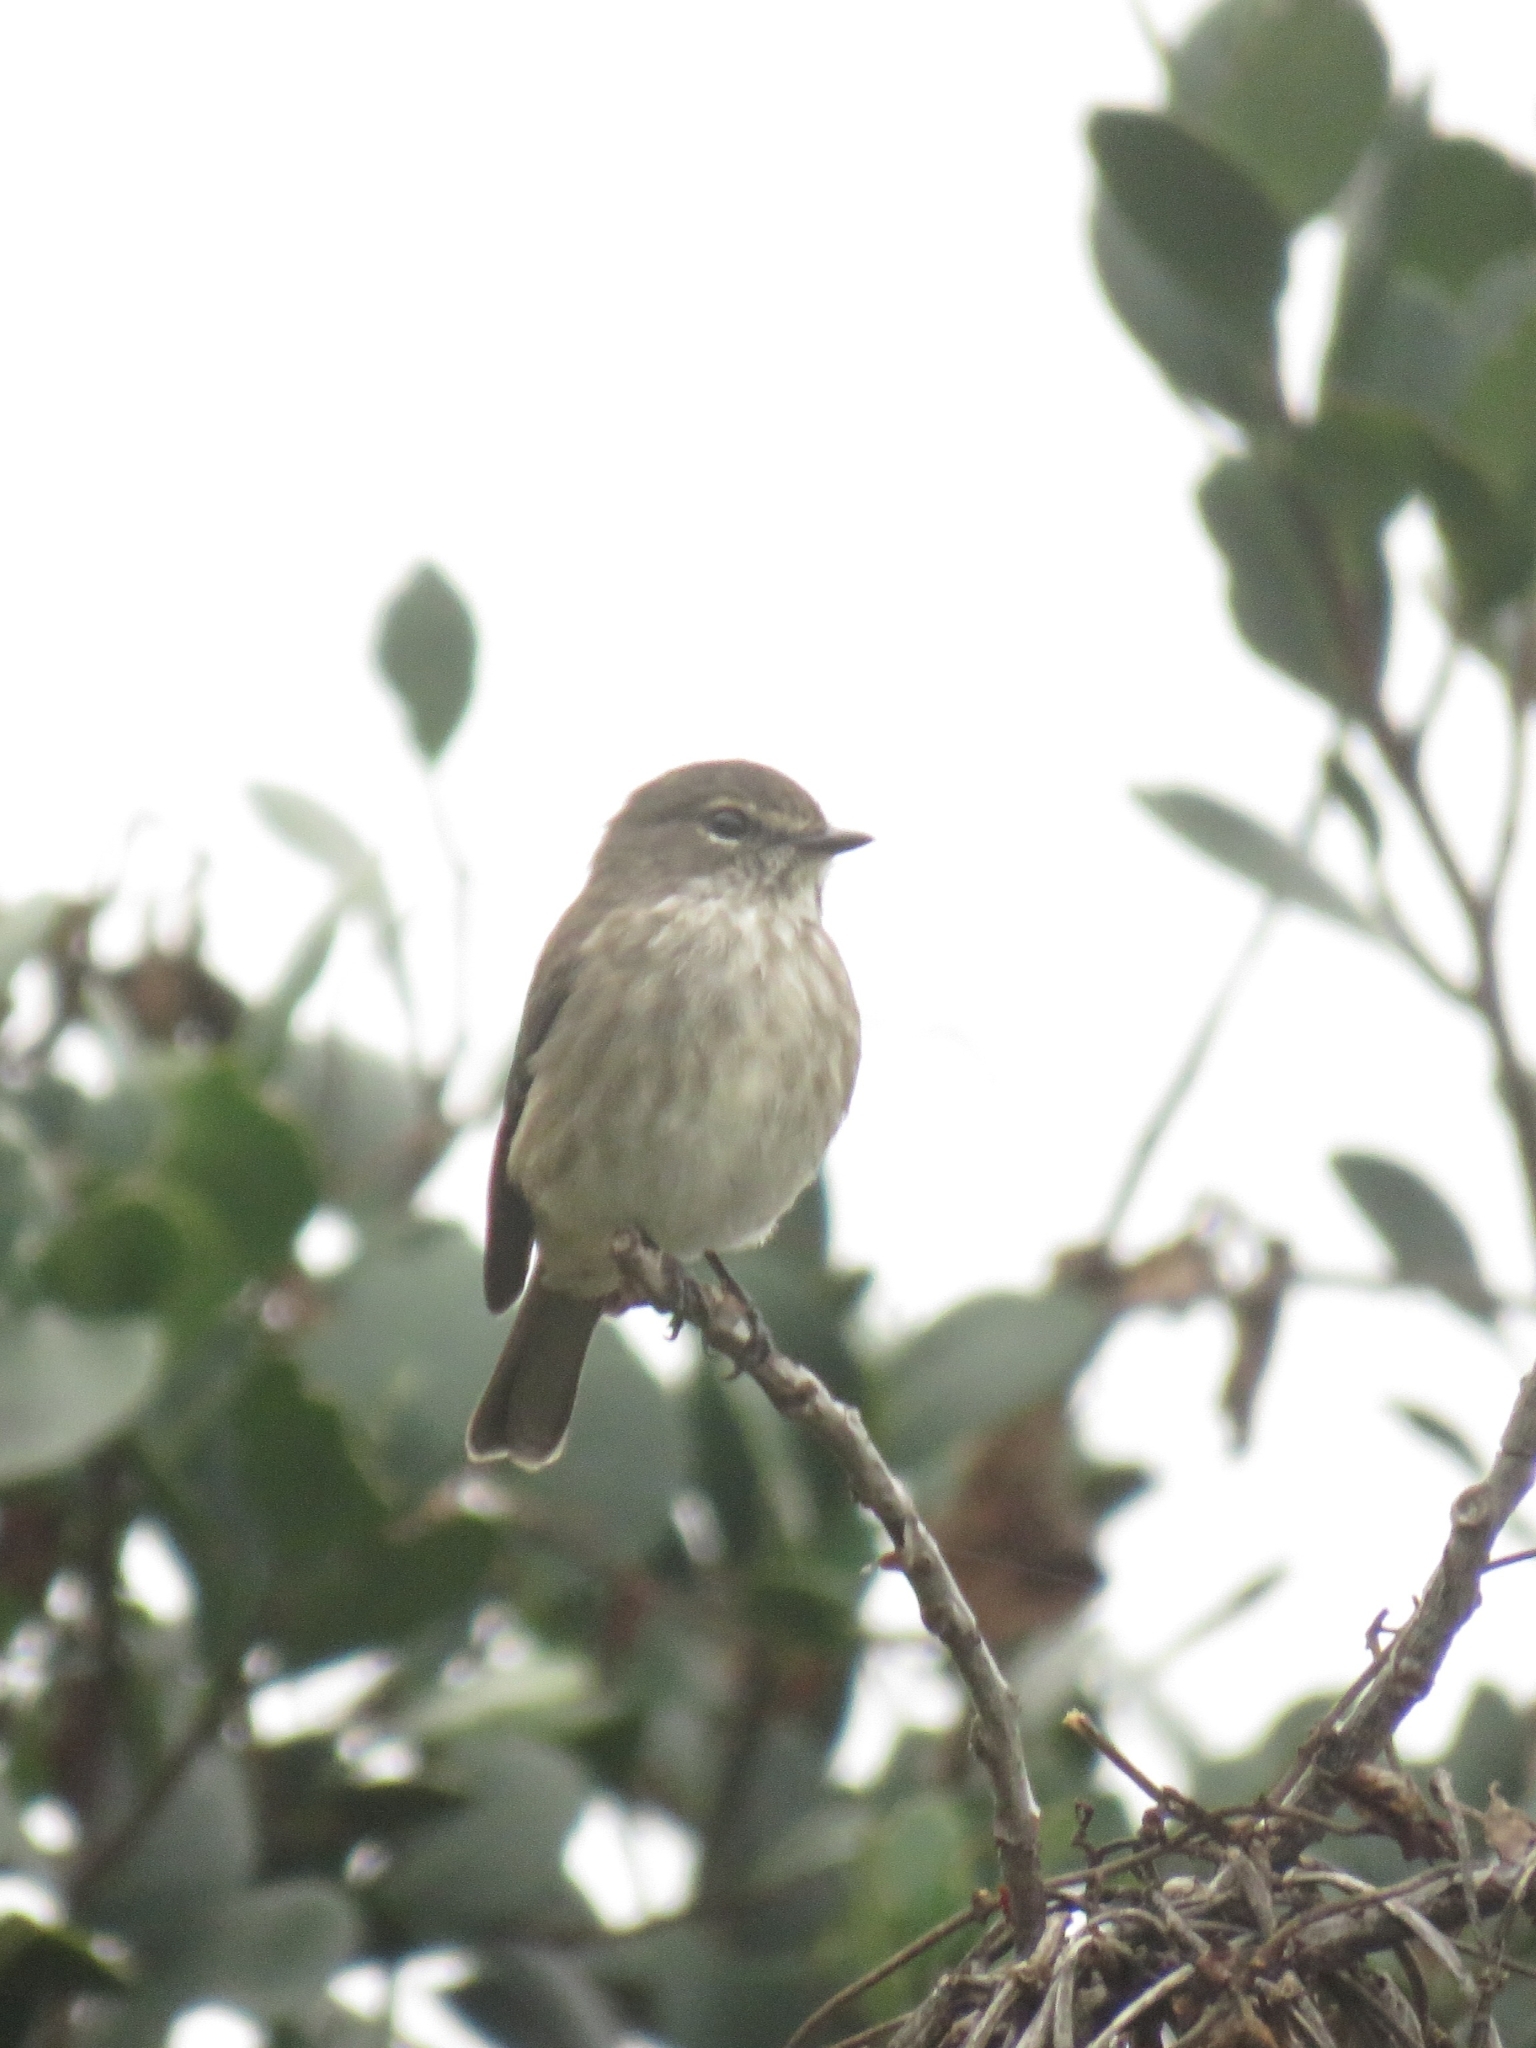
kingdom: Animalia
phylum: Chordata
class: Aves
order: Passeriformes
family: Muscicapidae
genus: Muscicapa
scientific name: Muscicapa adusta
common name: African dusky flycatcher
